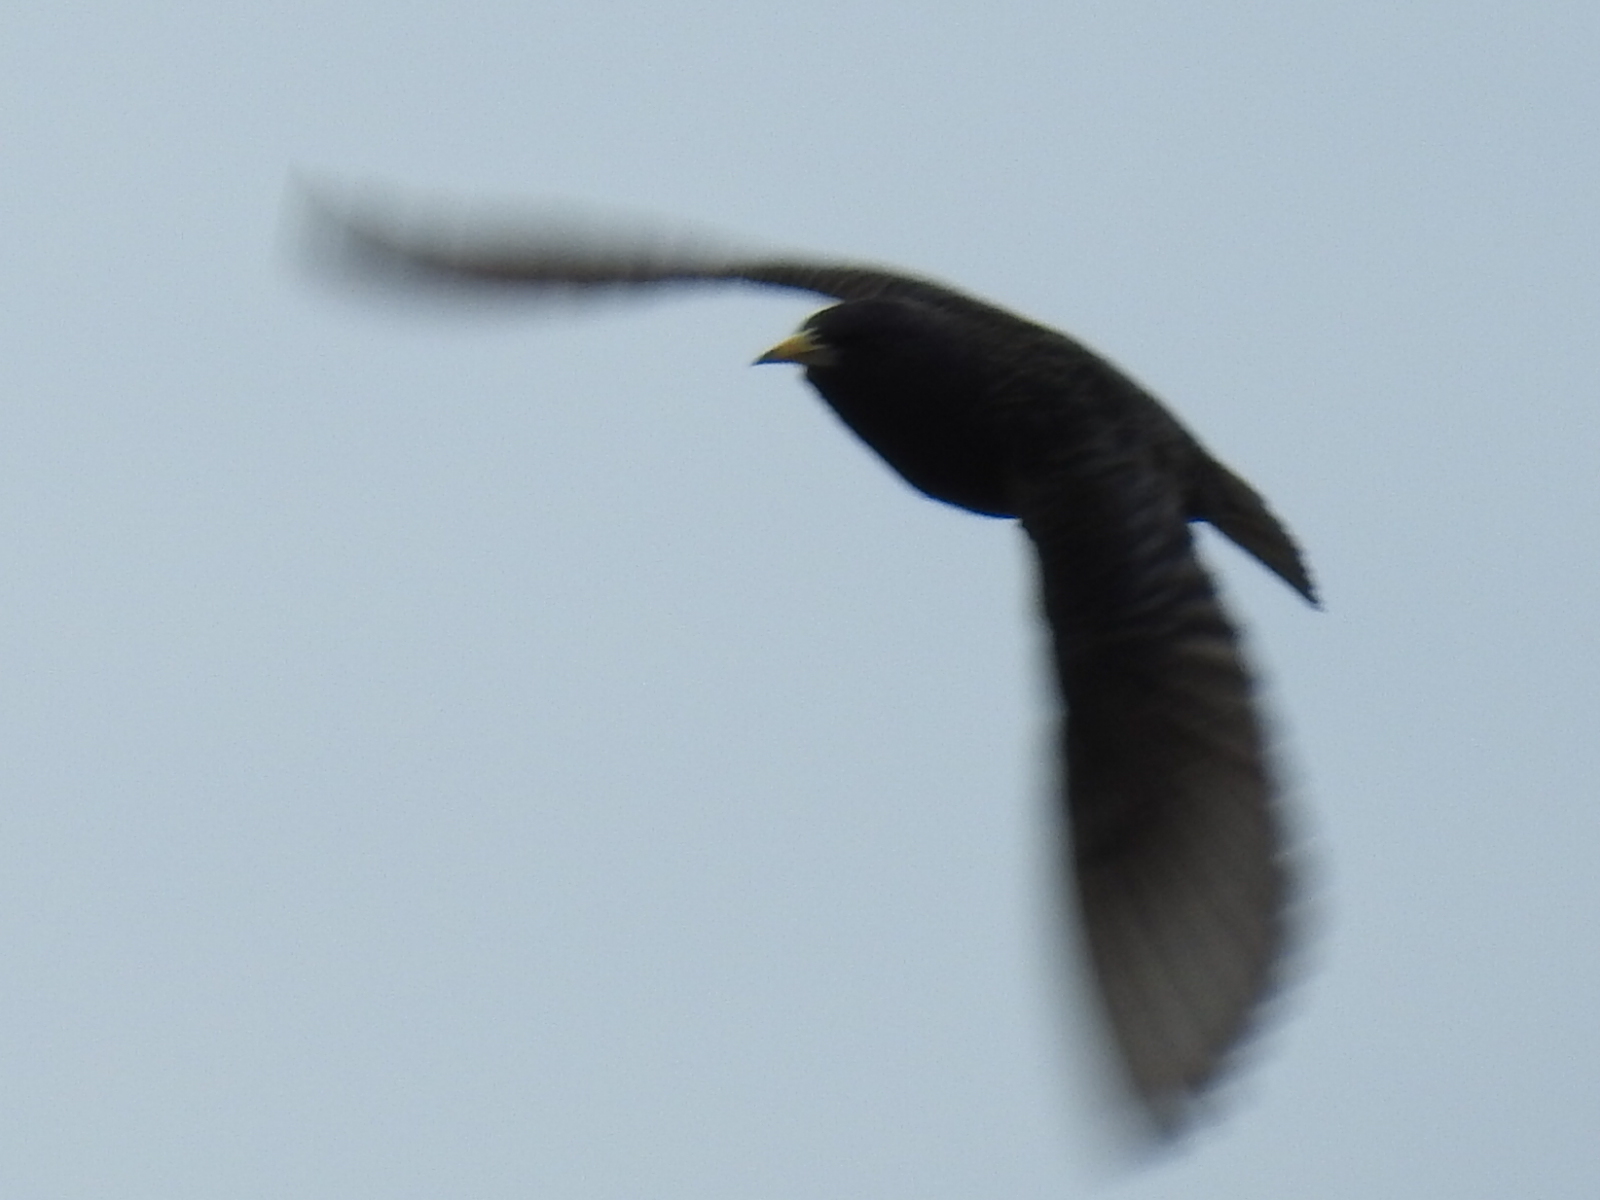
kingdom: Animalia
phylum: Chordata
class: Aves
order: Passeriformes
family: Sturnidae
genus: Sturnus
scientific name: Sturnus vulgaris
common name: Common starling
